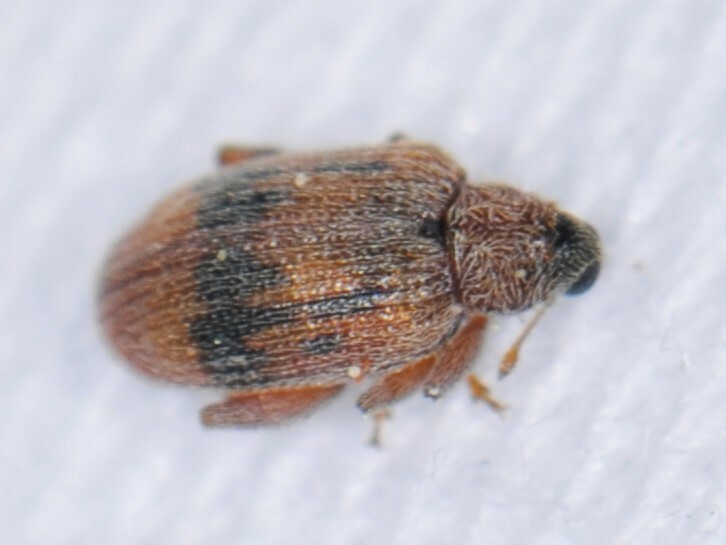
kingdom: Animalia
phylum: Arthropoda
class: Insecta
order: Coleoptera
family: Curculionidae
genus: Orchestes
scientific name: Orchestes steppensis
